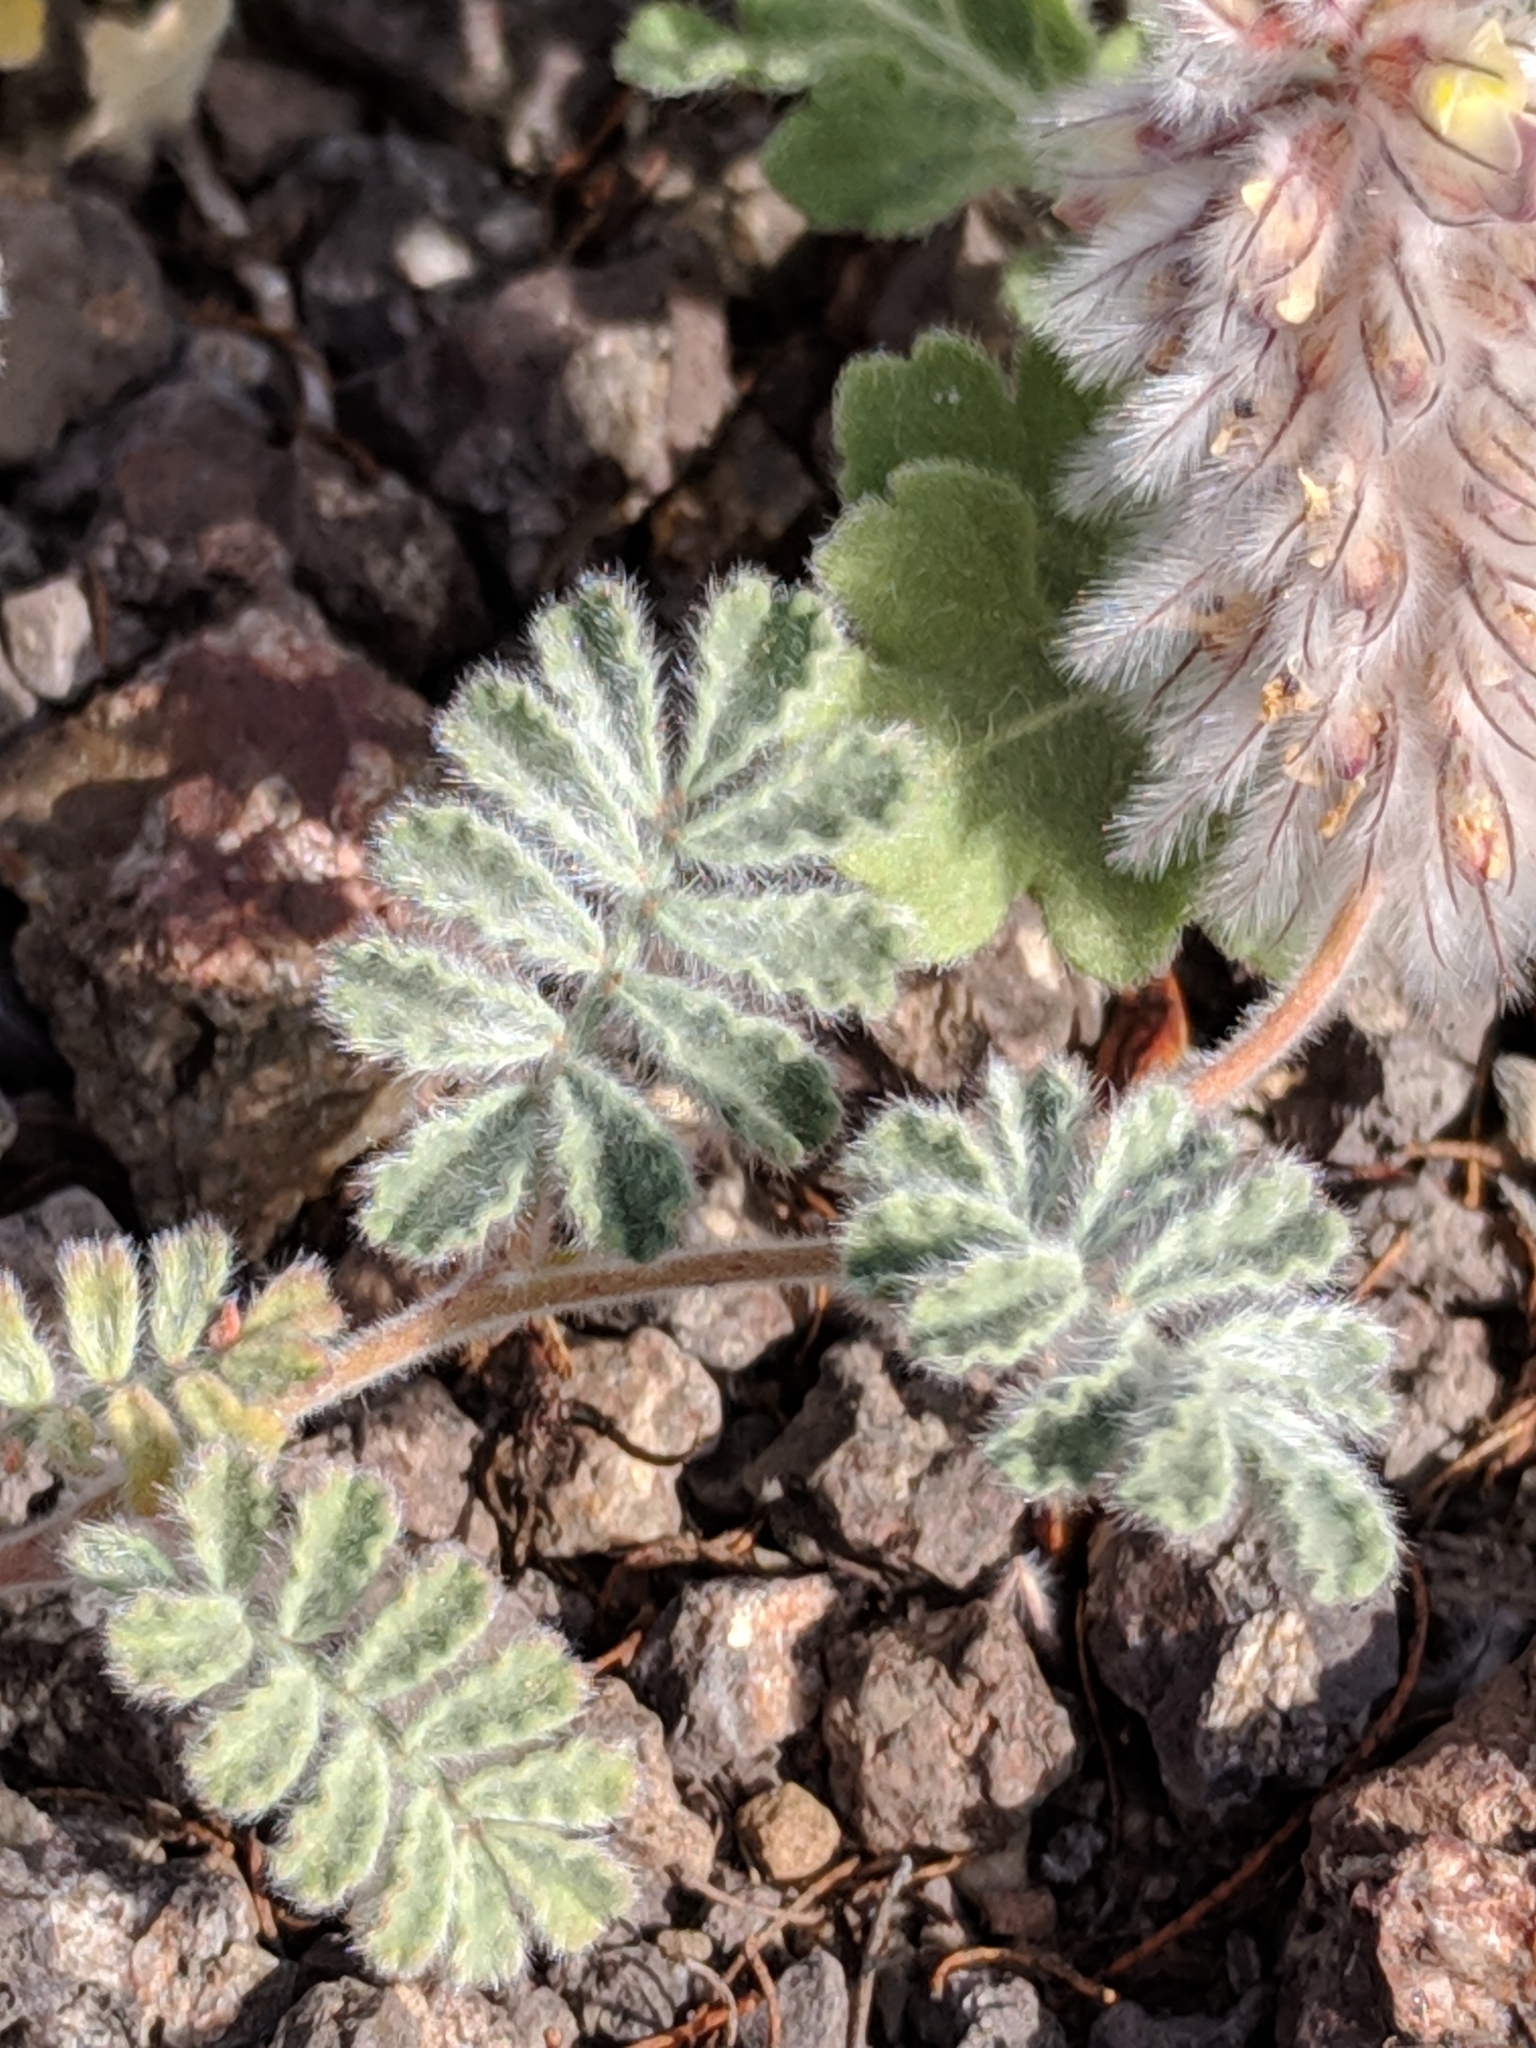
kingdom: Plantae
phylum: Tracheophyta
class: Magnoliopsida
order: Fabales
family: Fabaceae
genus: Dalea
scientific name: Dalea neomexicana
